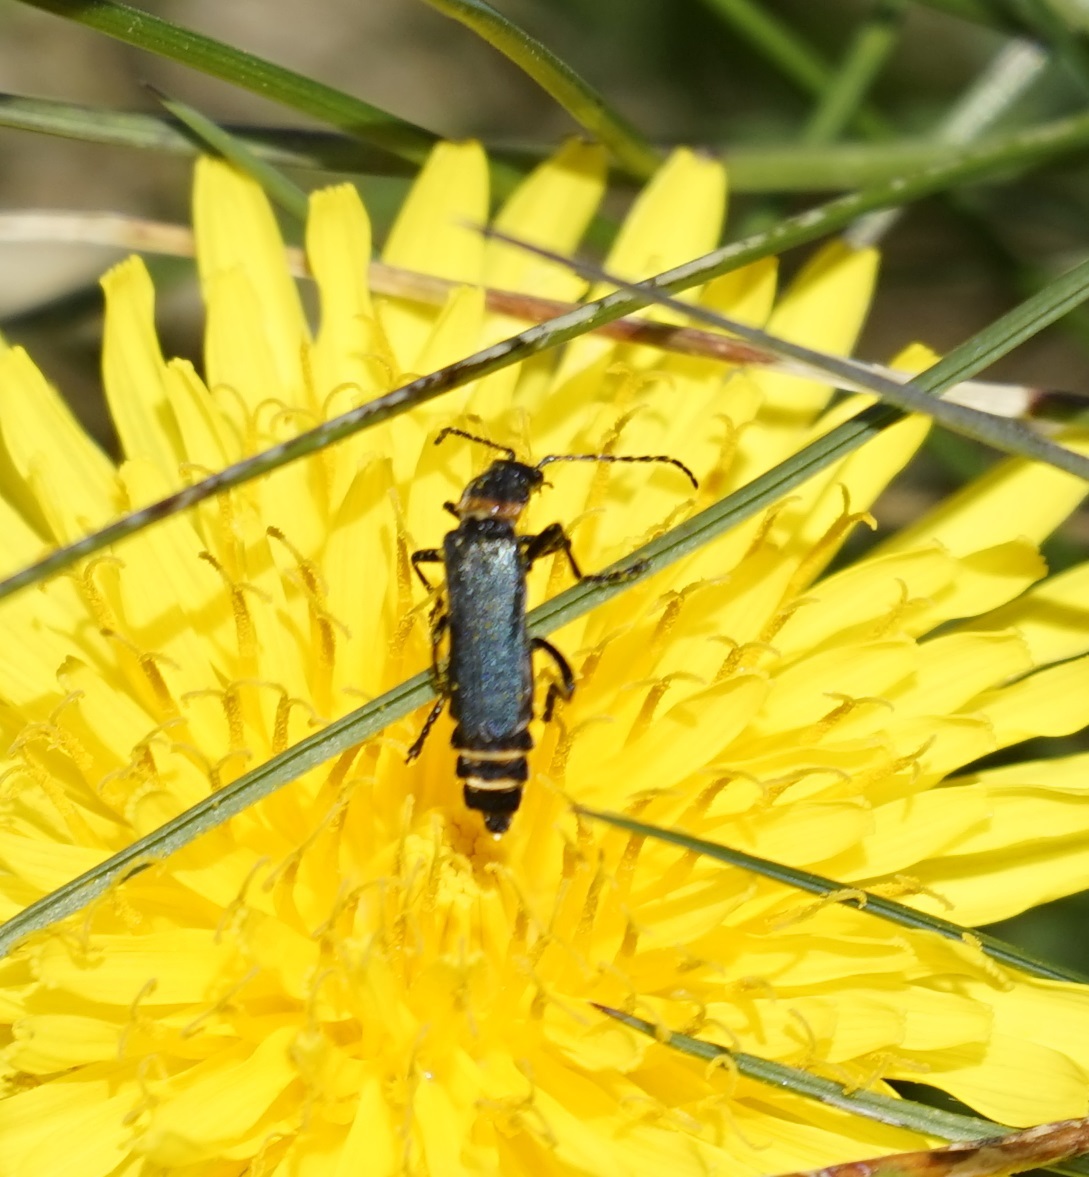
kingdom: Animalia
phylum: Arthropoda
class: Insecta
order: Coleoptera
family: Cantharidae
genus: Chauliognathus
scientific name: Chauliognathus
